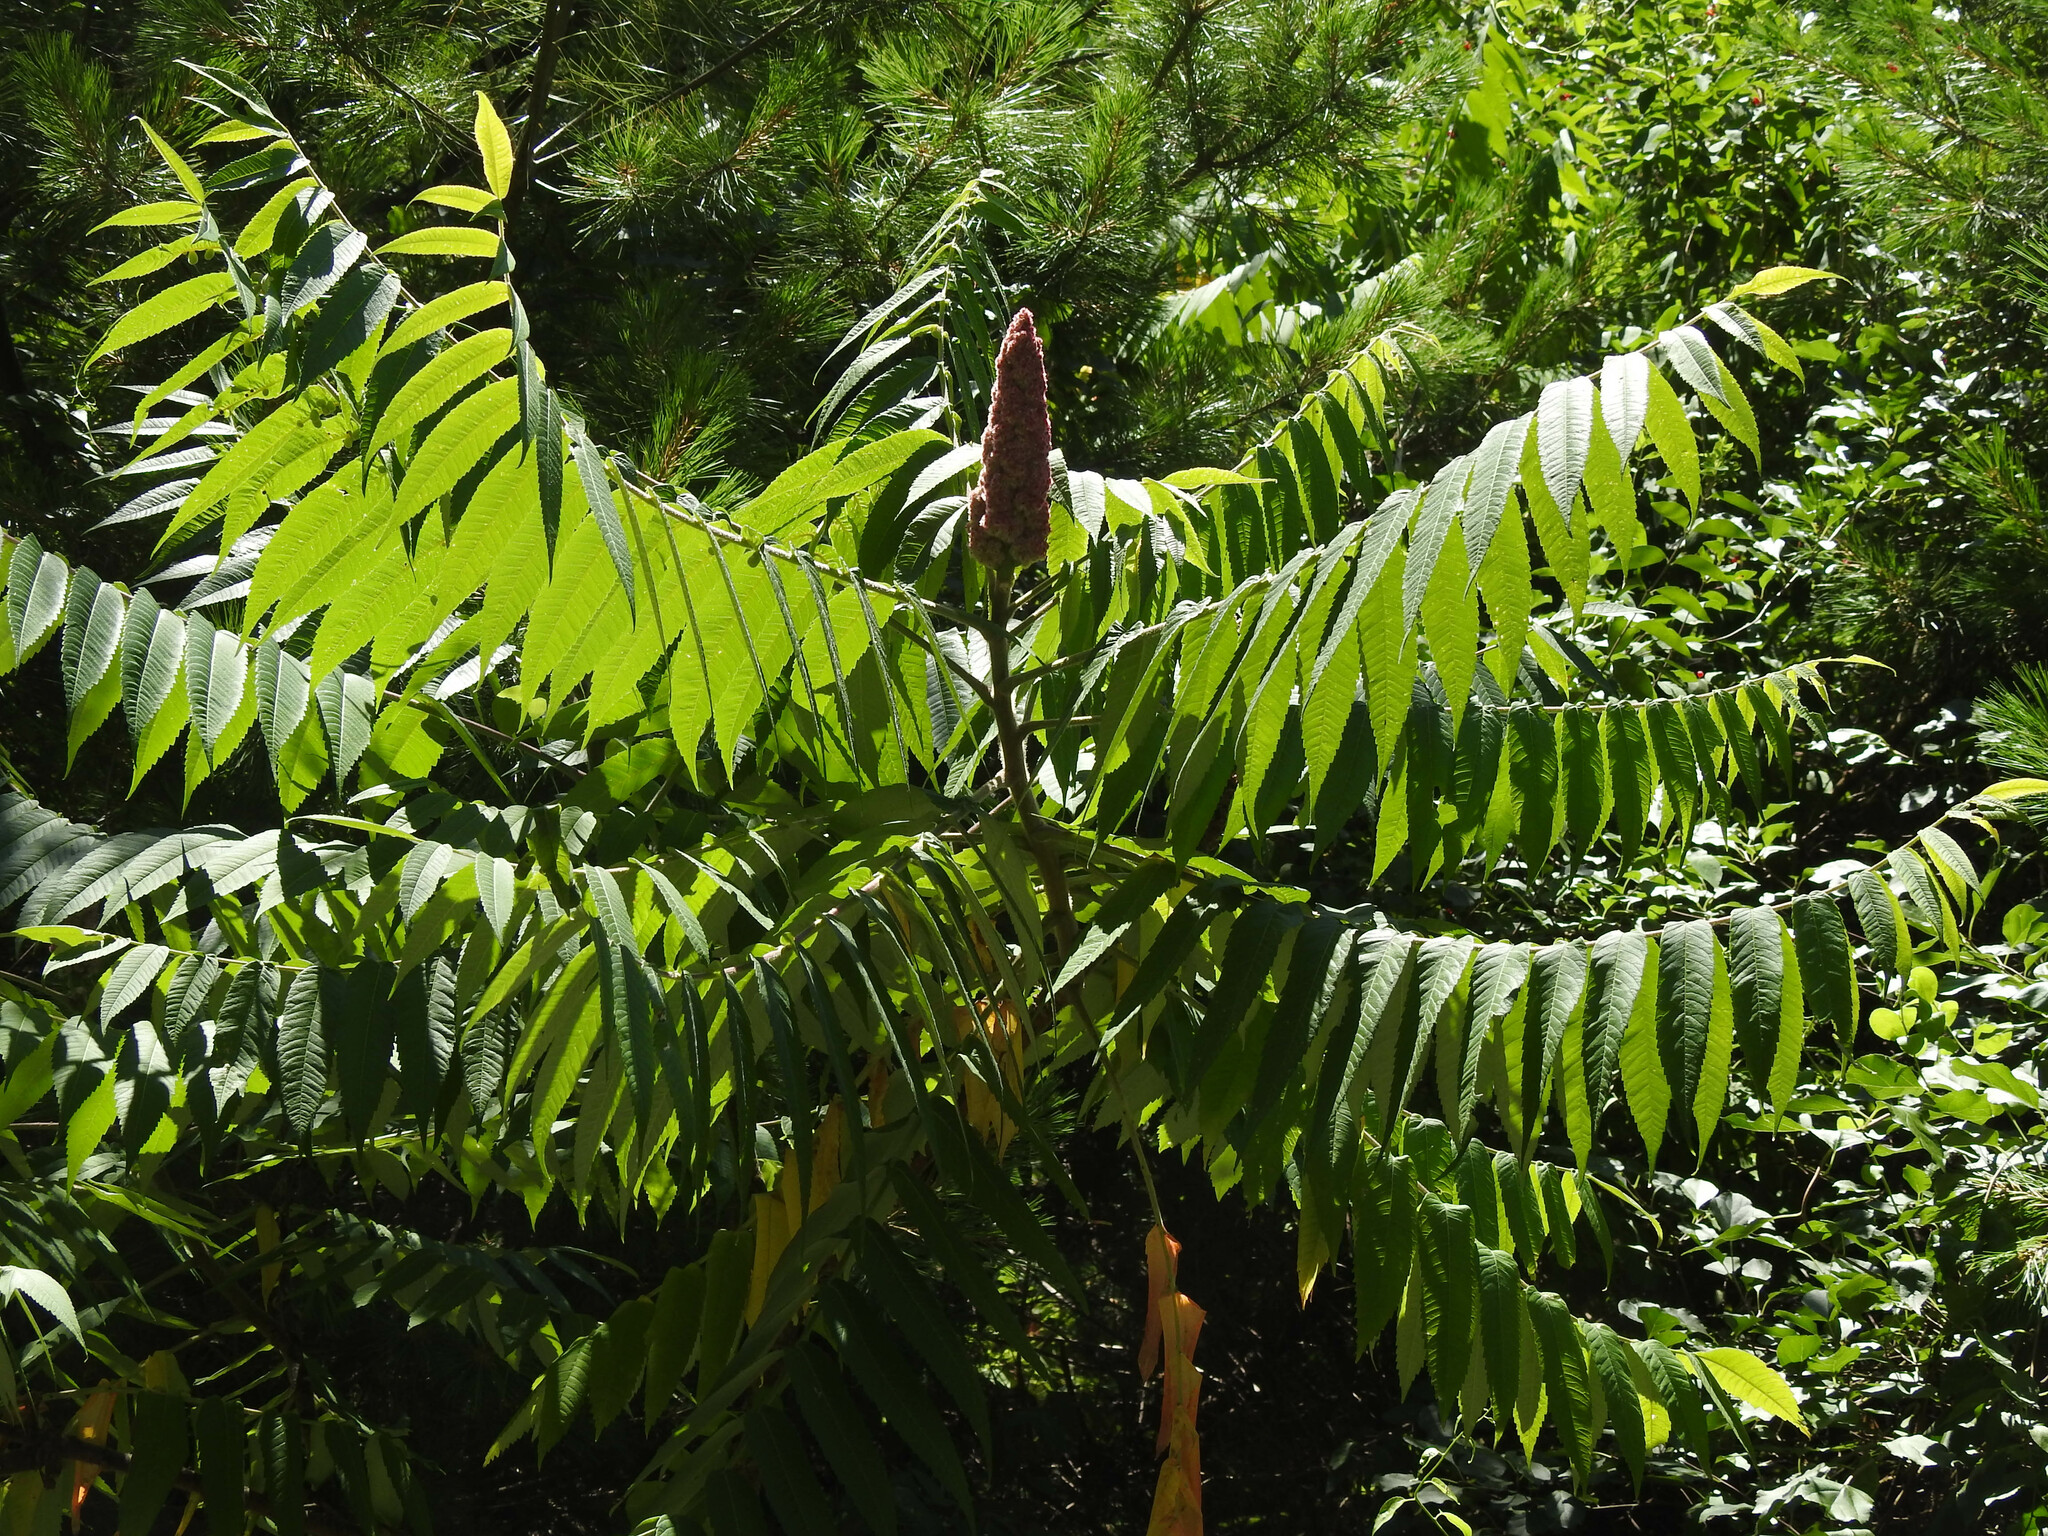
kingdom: Plantae
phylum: Tracheophyta
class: Magnoliopsida
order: Sapindales
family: Anacardiaceae
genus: Rhus
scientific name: Rhus typhina
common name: Staghorn sumac
